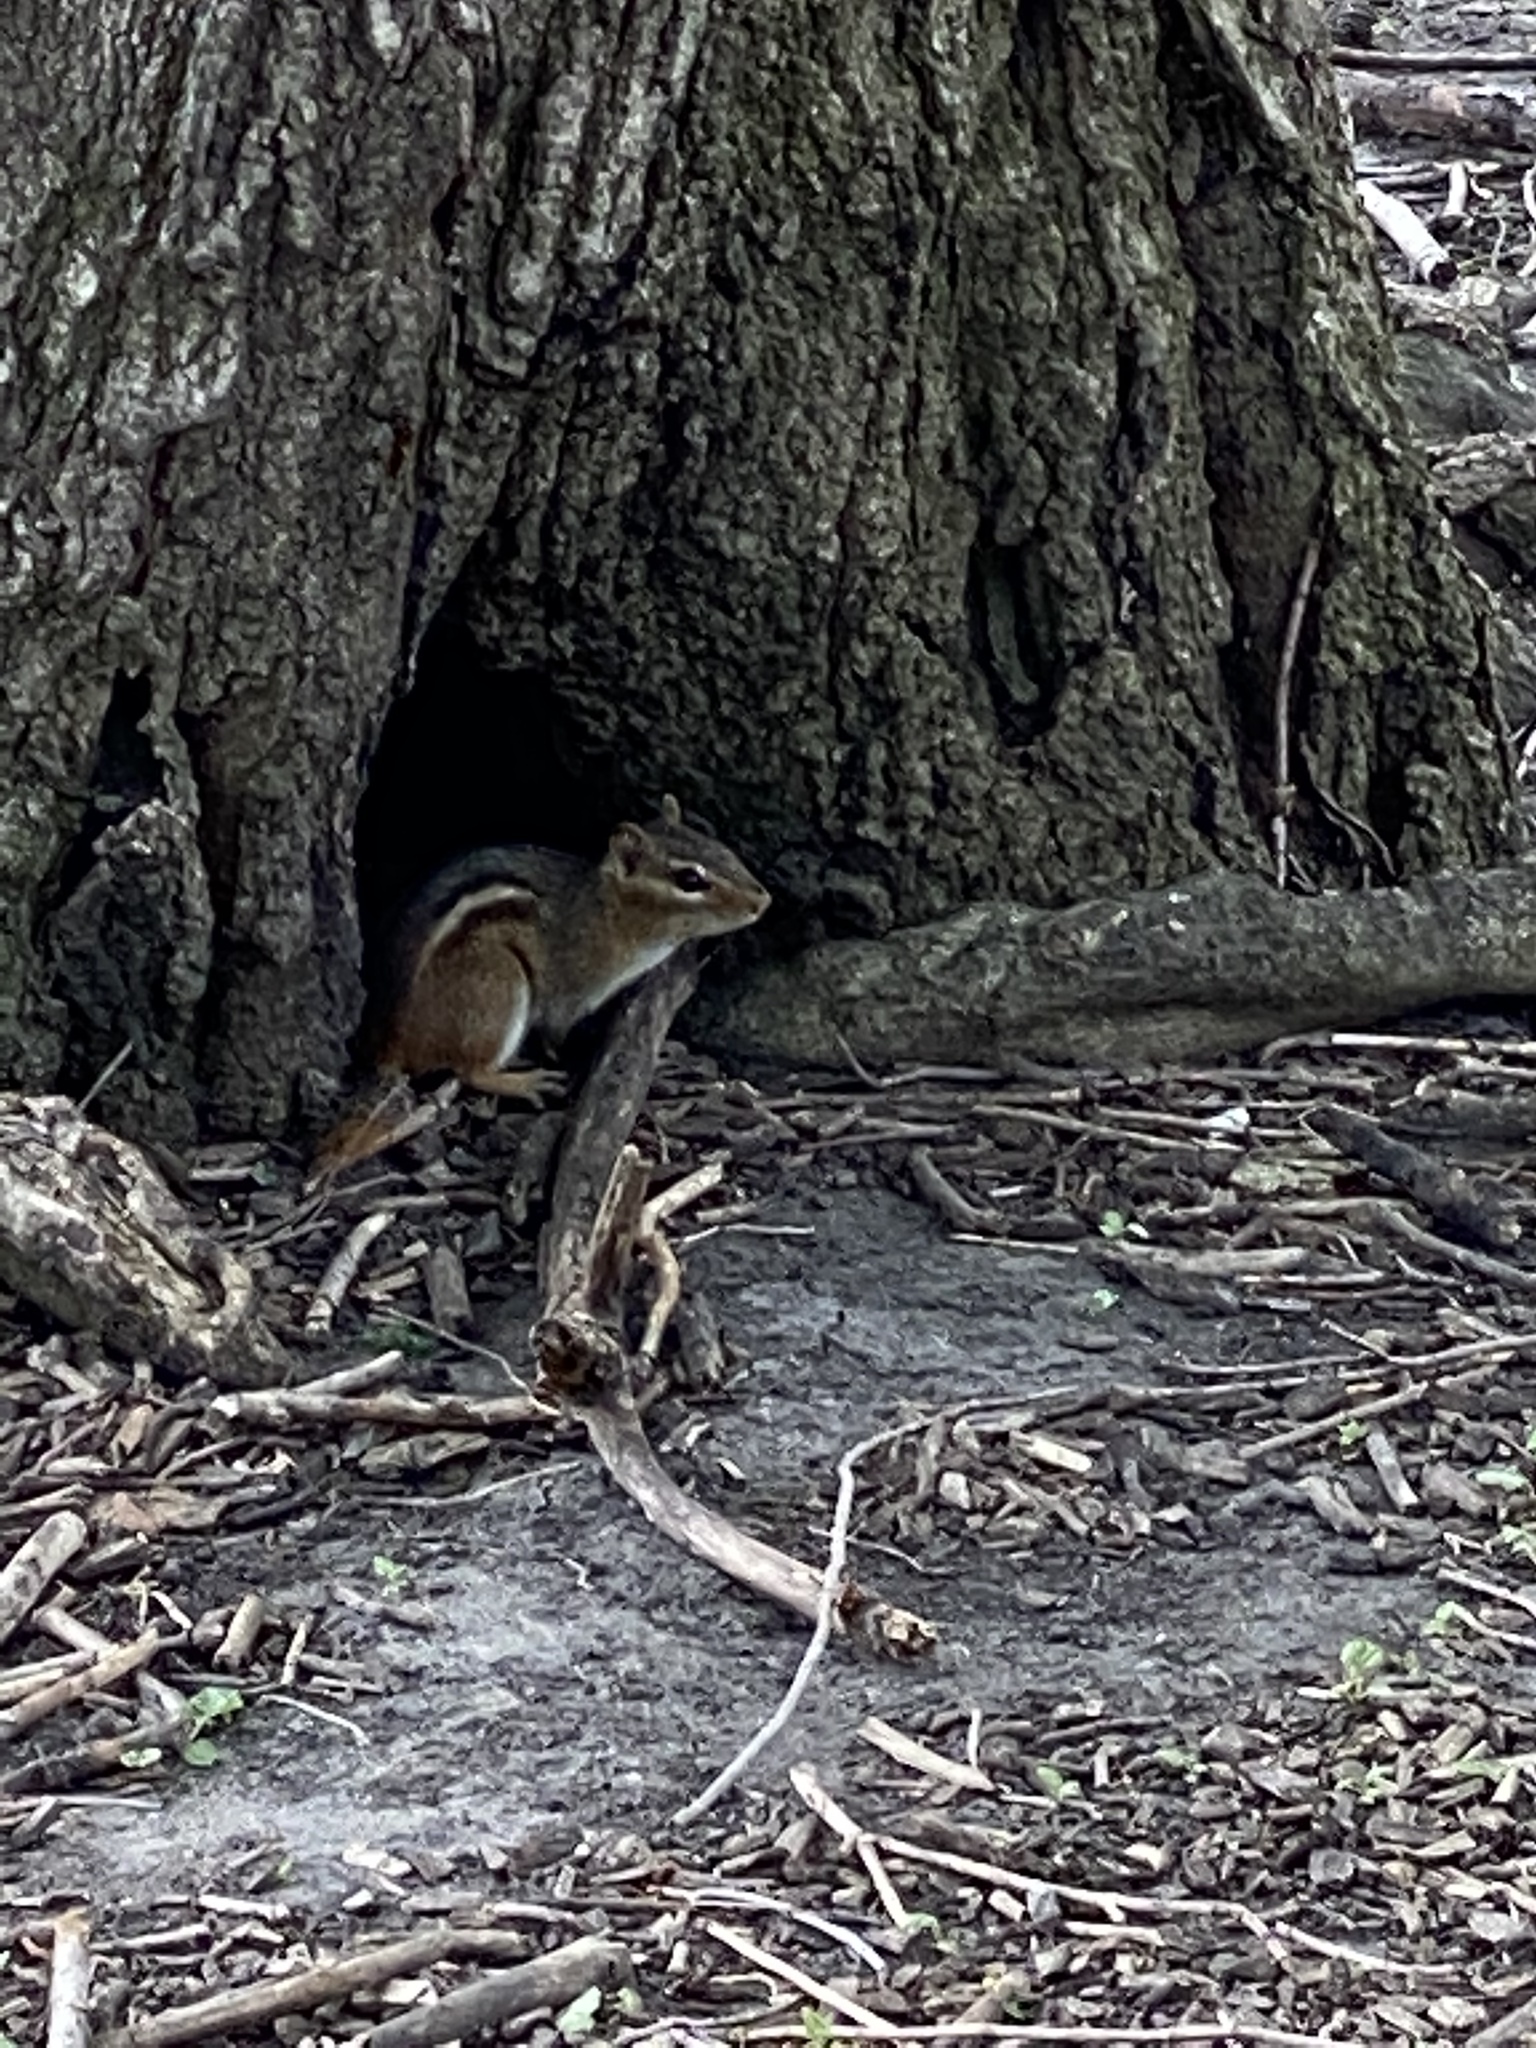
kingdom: Animalia
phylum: Chordata
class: Mammalia
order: Rodentia
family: Sciuridae
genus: Tamias
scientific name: Tamias striatus
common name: Eastern chipmunk
